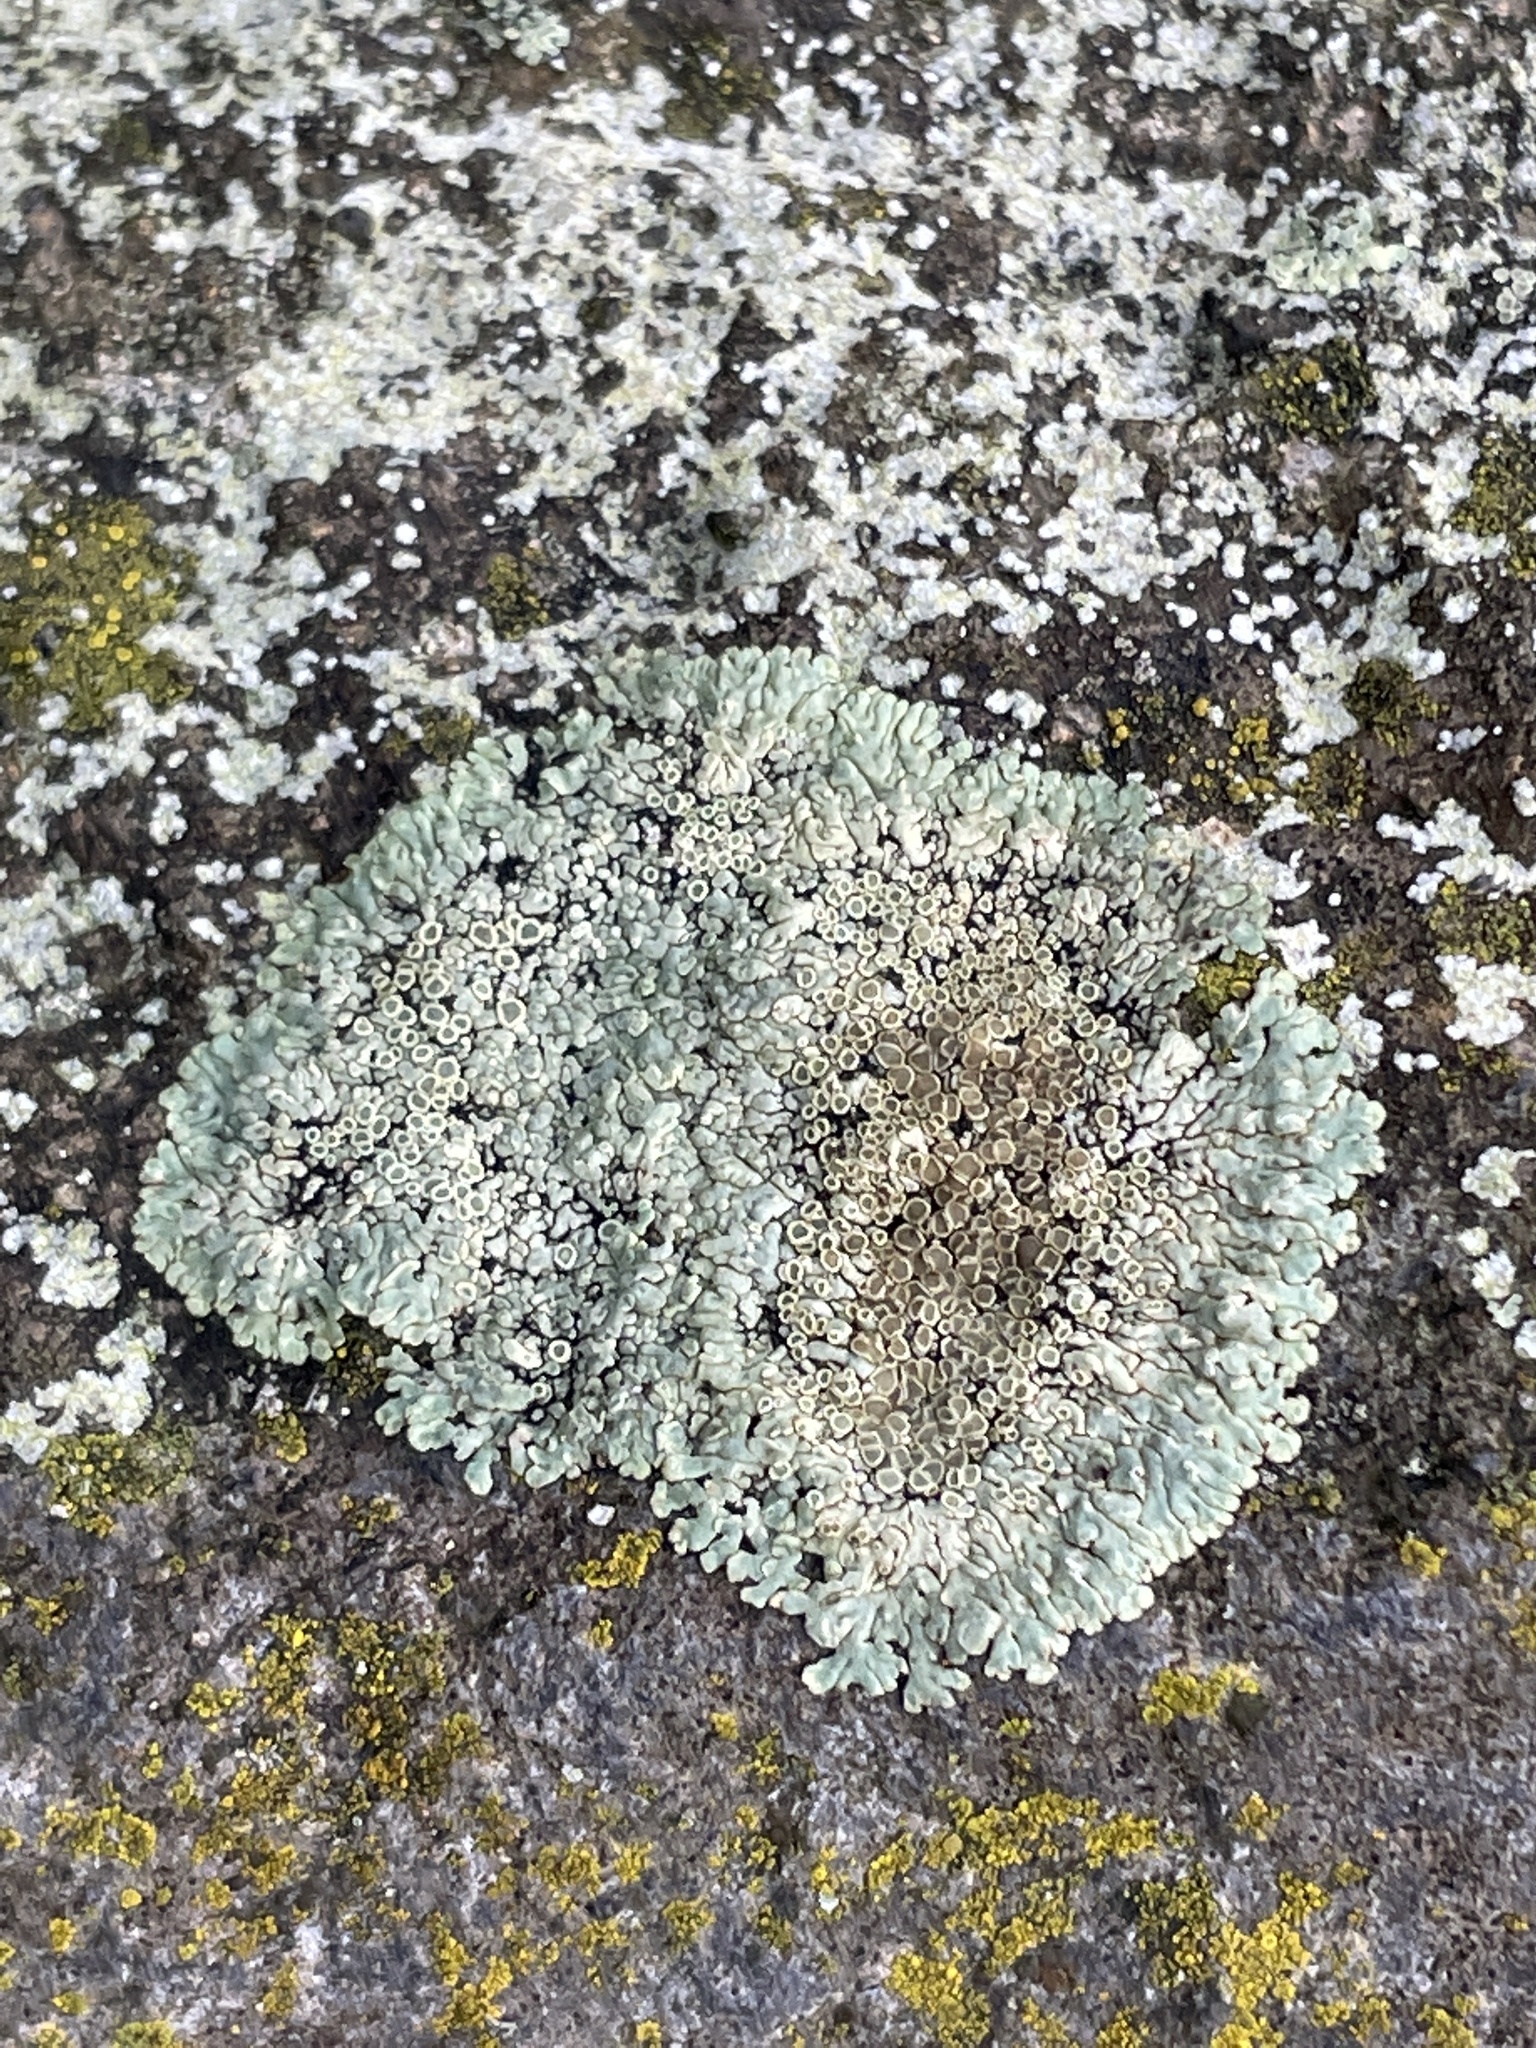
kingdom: Fungi
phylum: Ascomycota
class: Lecanoromycetes
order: Lecanorales
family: Lecanoraceae
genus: Protoparmeliopsis
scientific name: Protoparmeliopsis muralis
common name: Stonewall rim lichen
